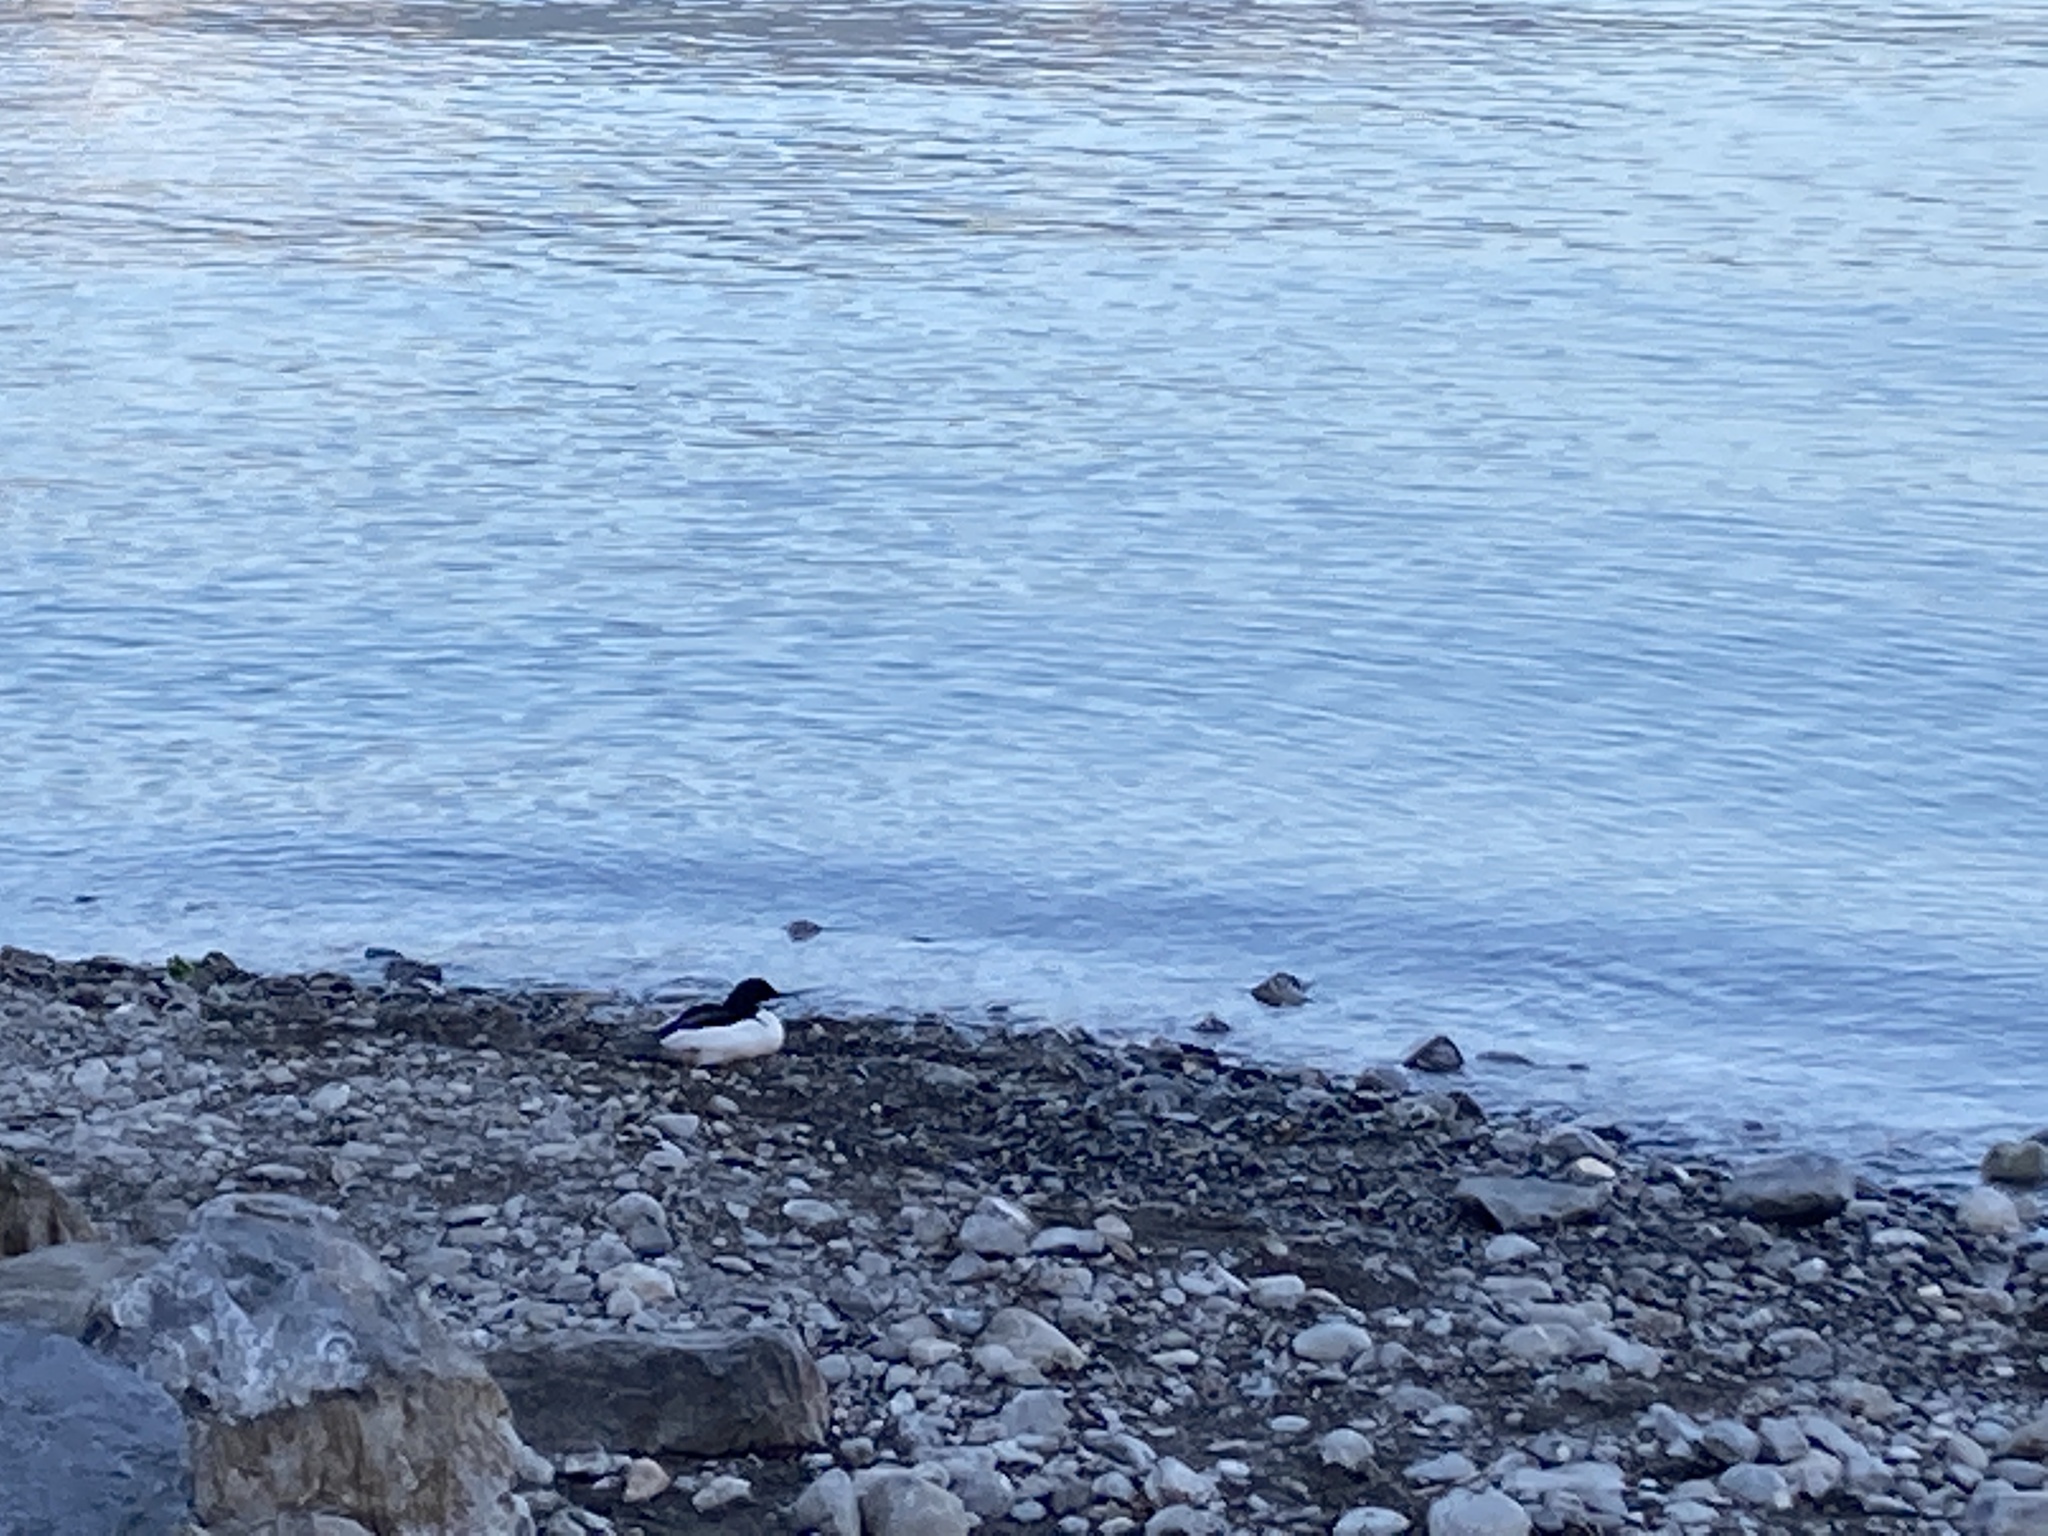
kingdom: Animalia
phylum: Chordata
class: Aves
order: Anseriformes
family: Anatidae
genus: Mergus
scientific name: Mergus merganser
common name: Common merganser
